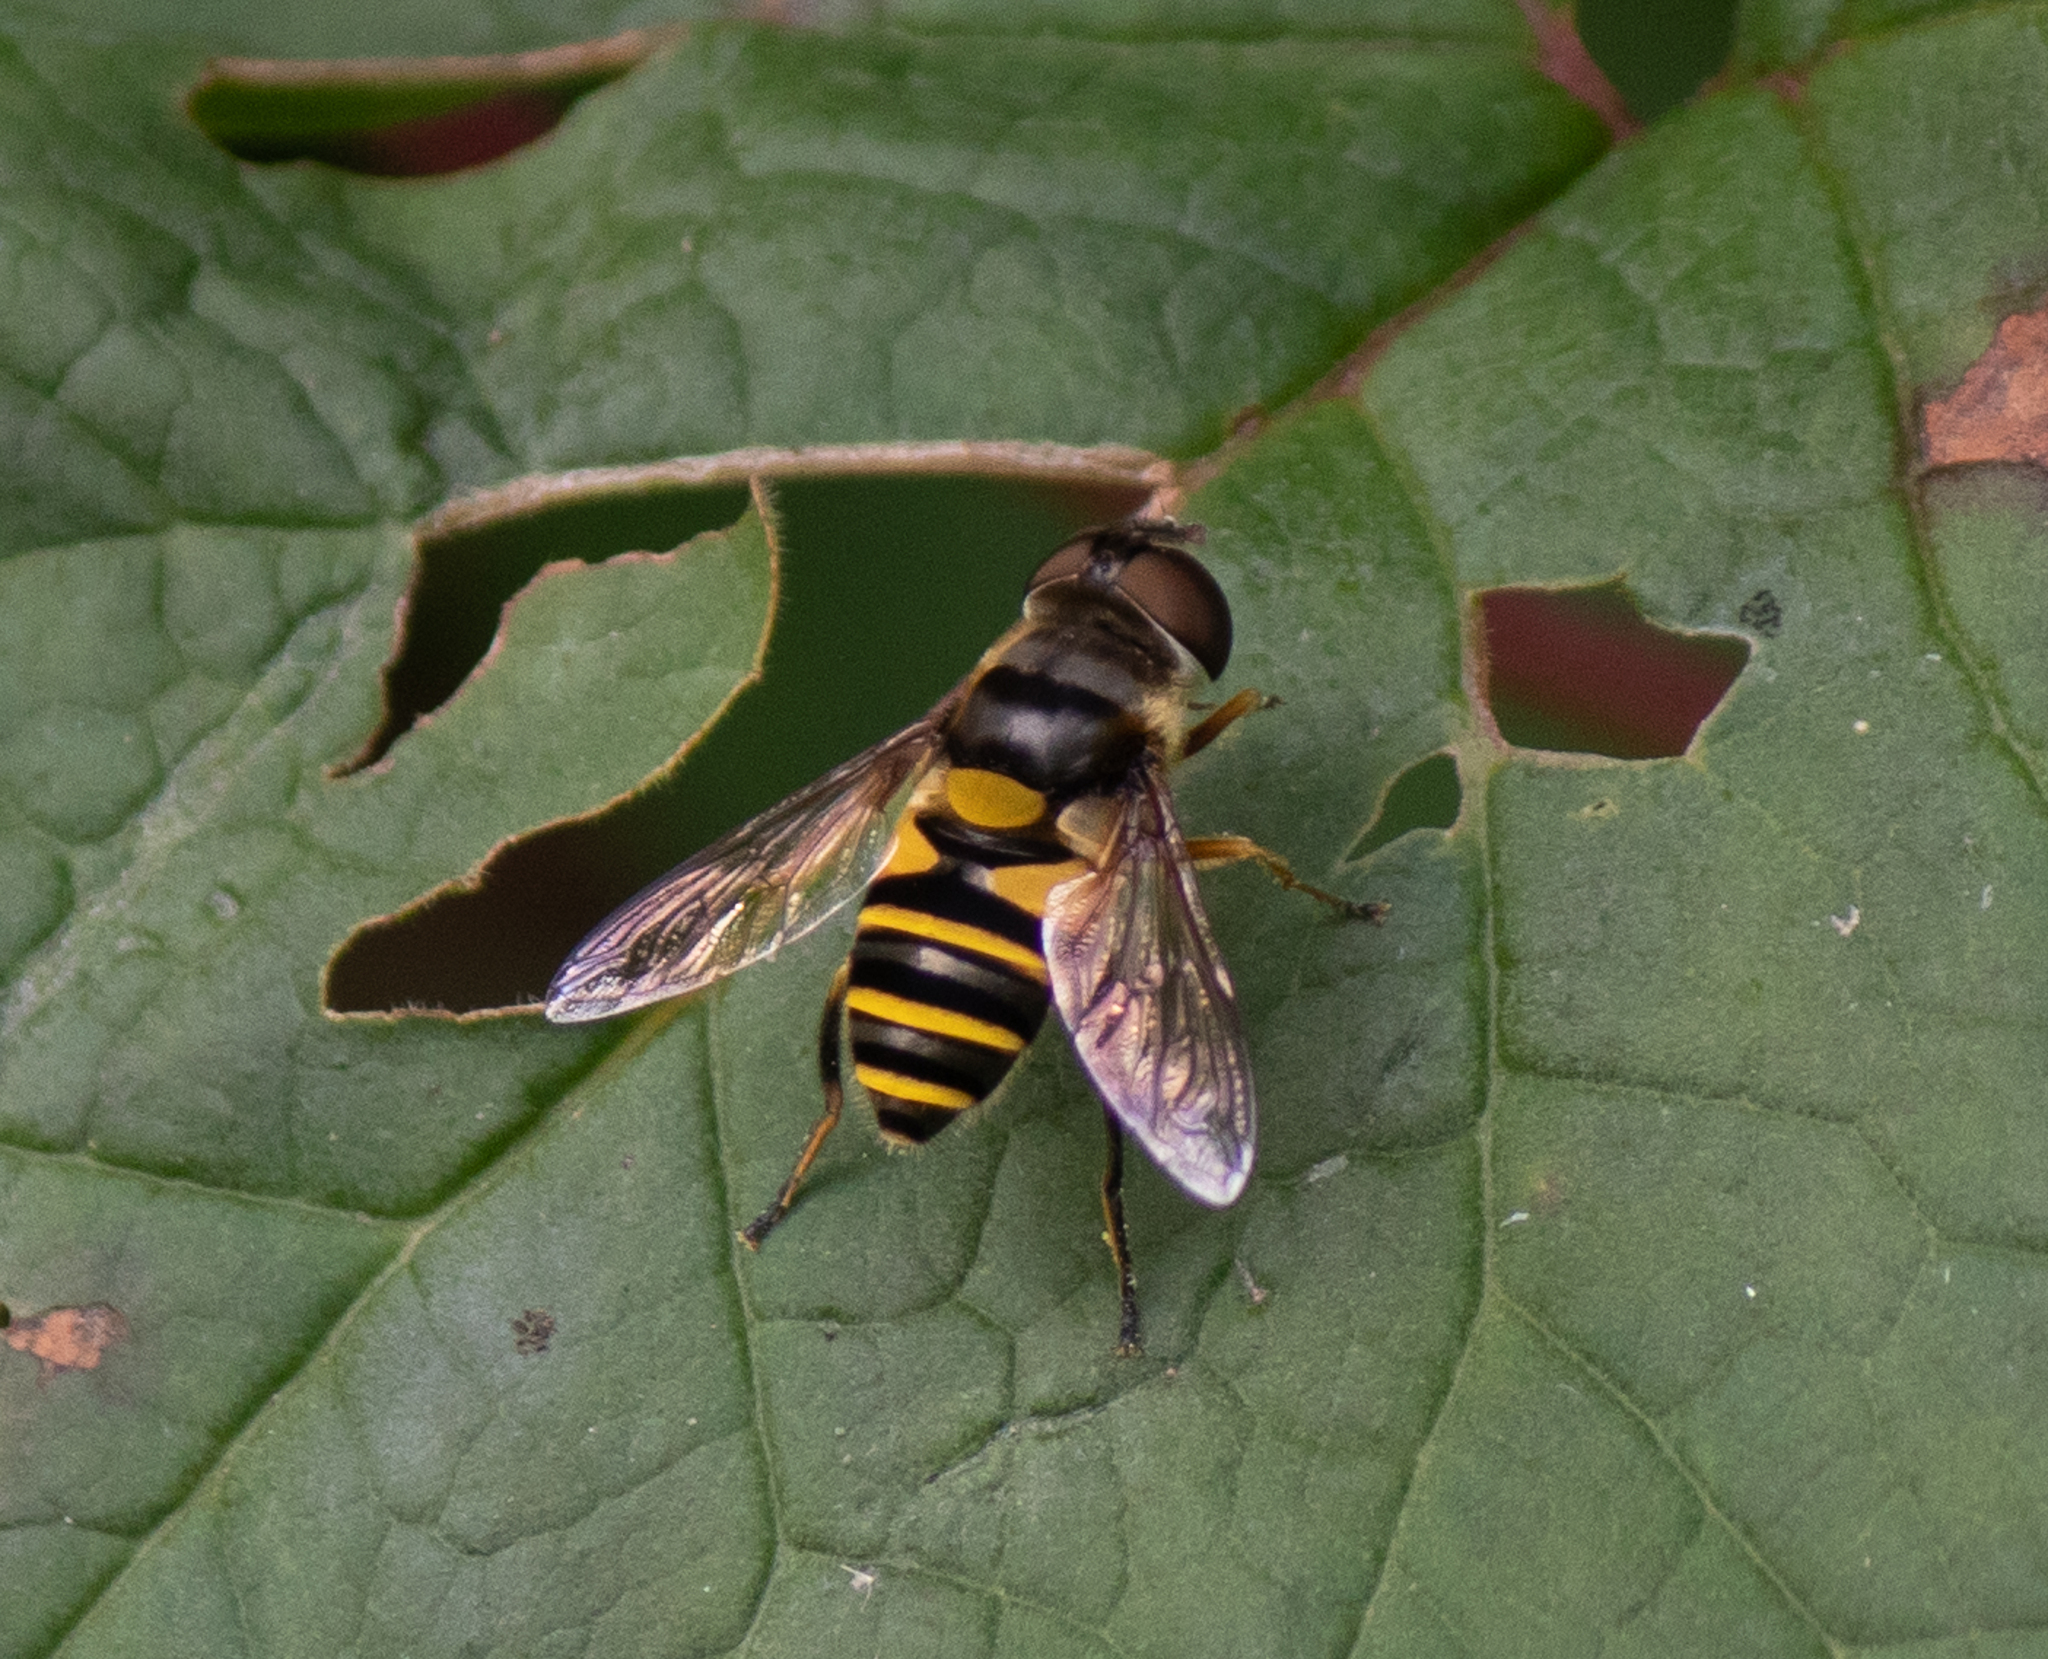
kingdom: Animalia
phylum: Arthropoda
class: Insecta
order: Diptera
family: Syrphidae
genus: Eristalis
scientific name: Eristalis transversa
